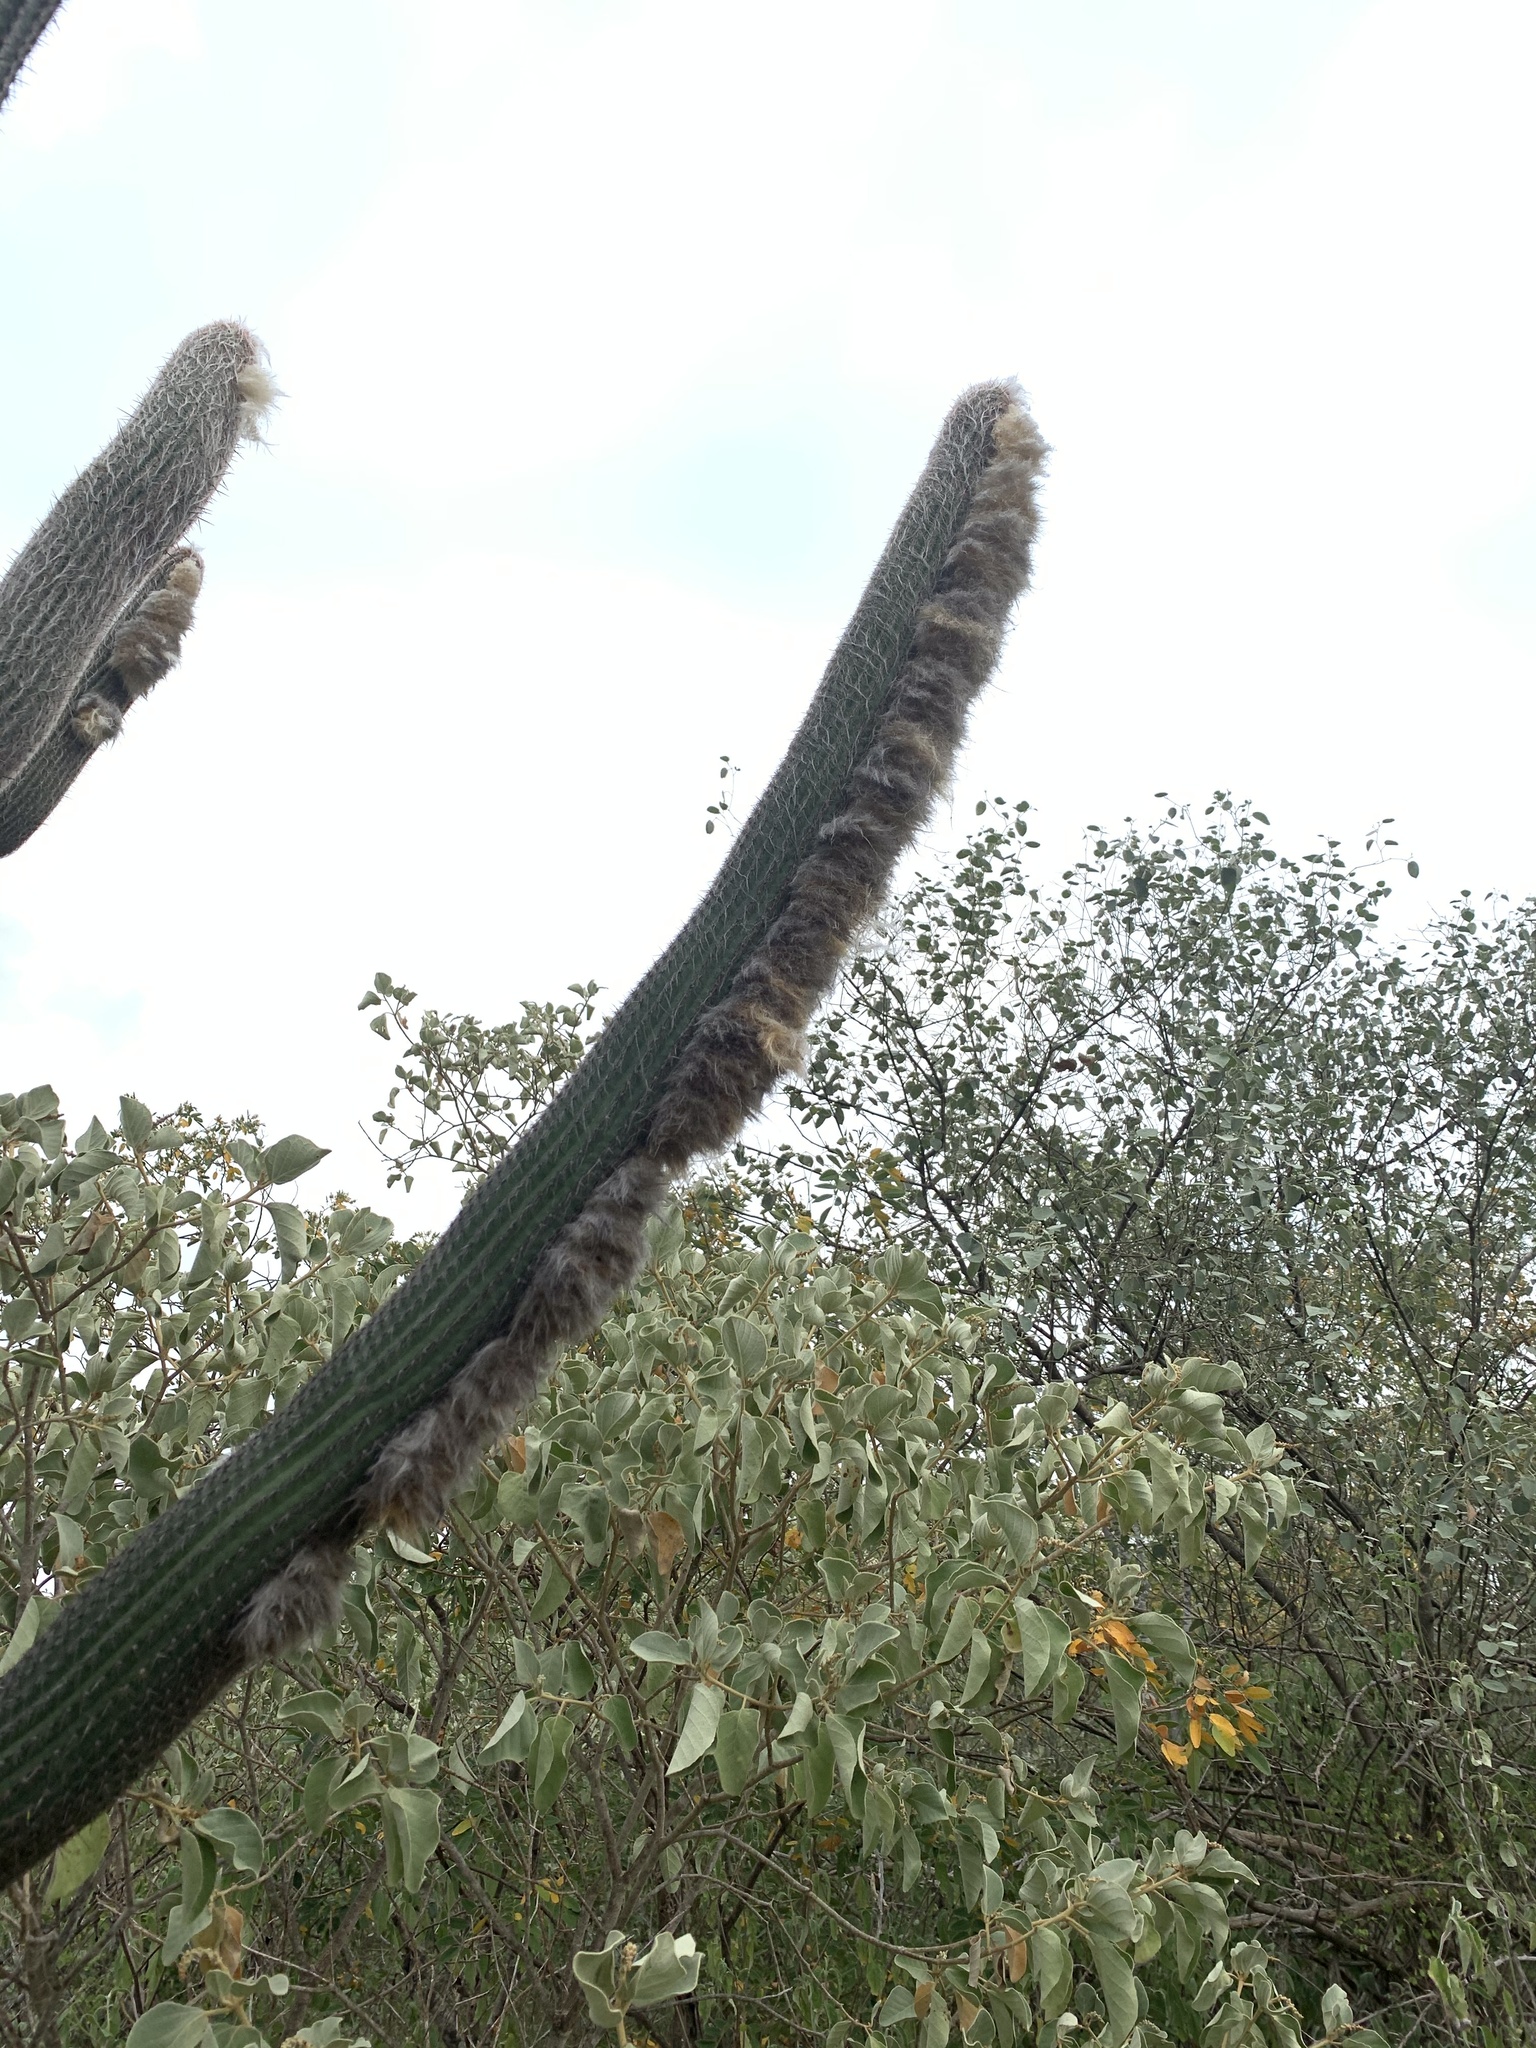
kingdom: Plantae
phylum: Tracheophyta
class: Magnoliopsida
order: Caryophyllales
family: Cactaceae
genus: Espostoa
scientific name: Espostoa lanata
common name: Snowball cactus
